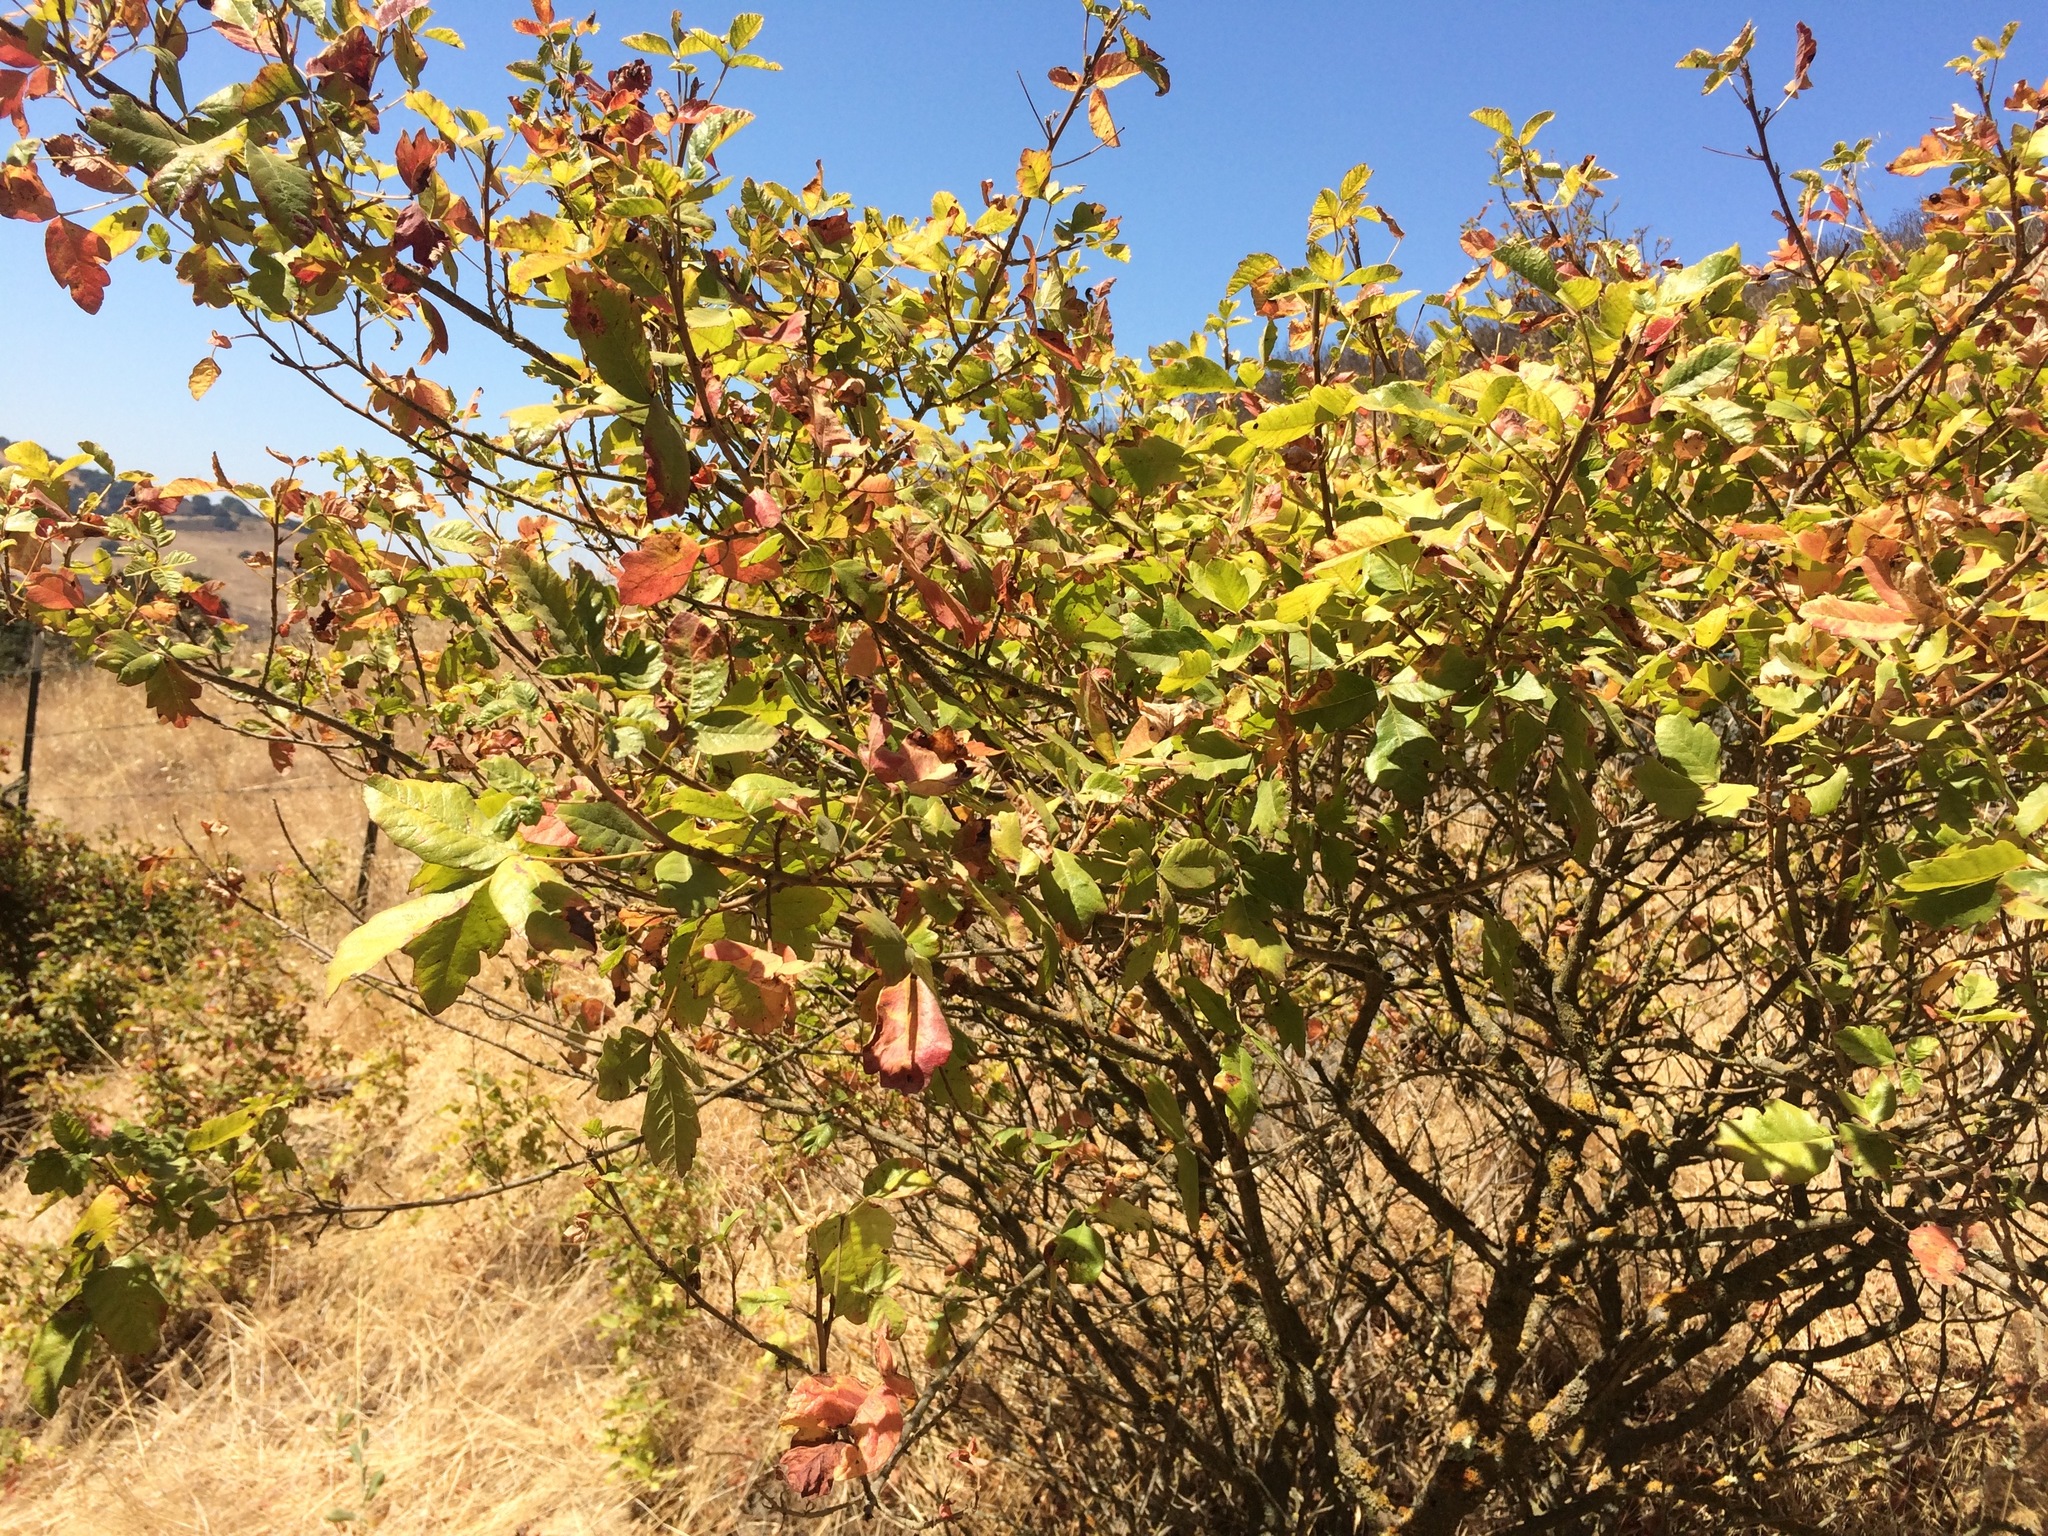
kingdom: Plantae
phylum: Tracheophyta
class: Magnoliopsida
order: Sapindales
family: Anacardiaceae
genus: Toxicodendron
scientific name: Toxicodendron diversilobum
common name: Pacific poison-oak
